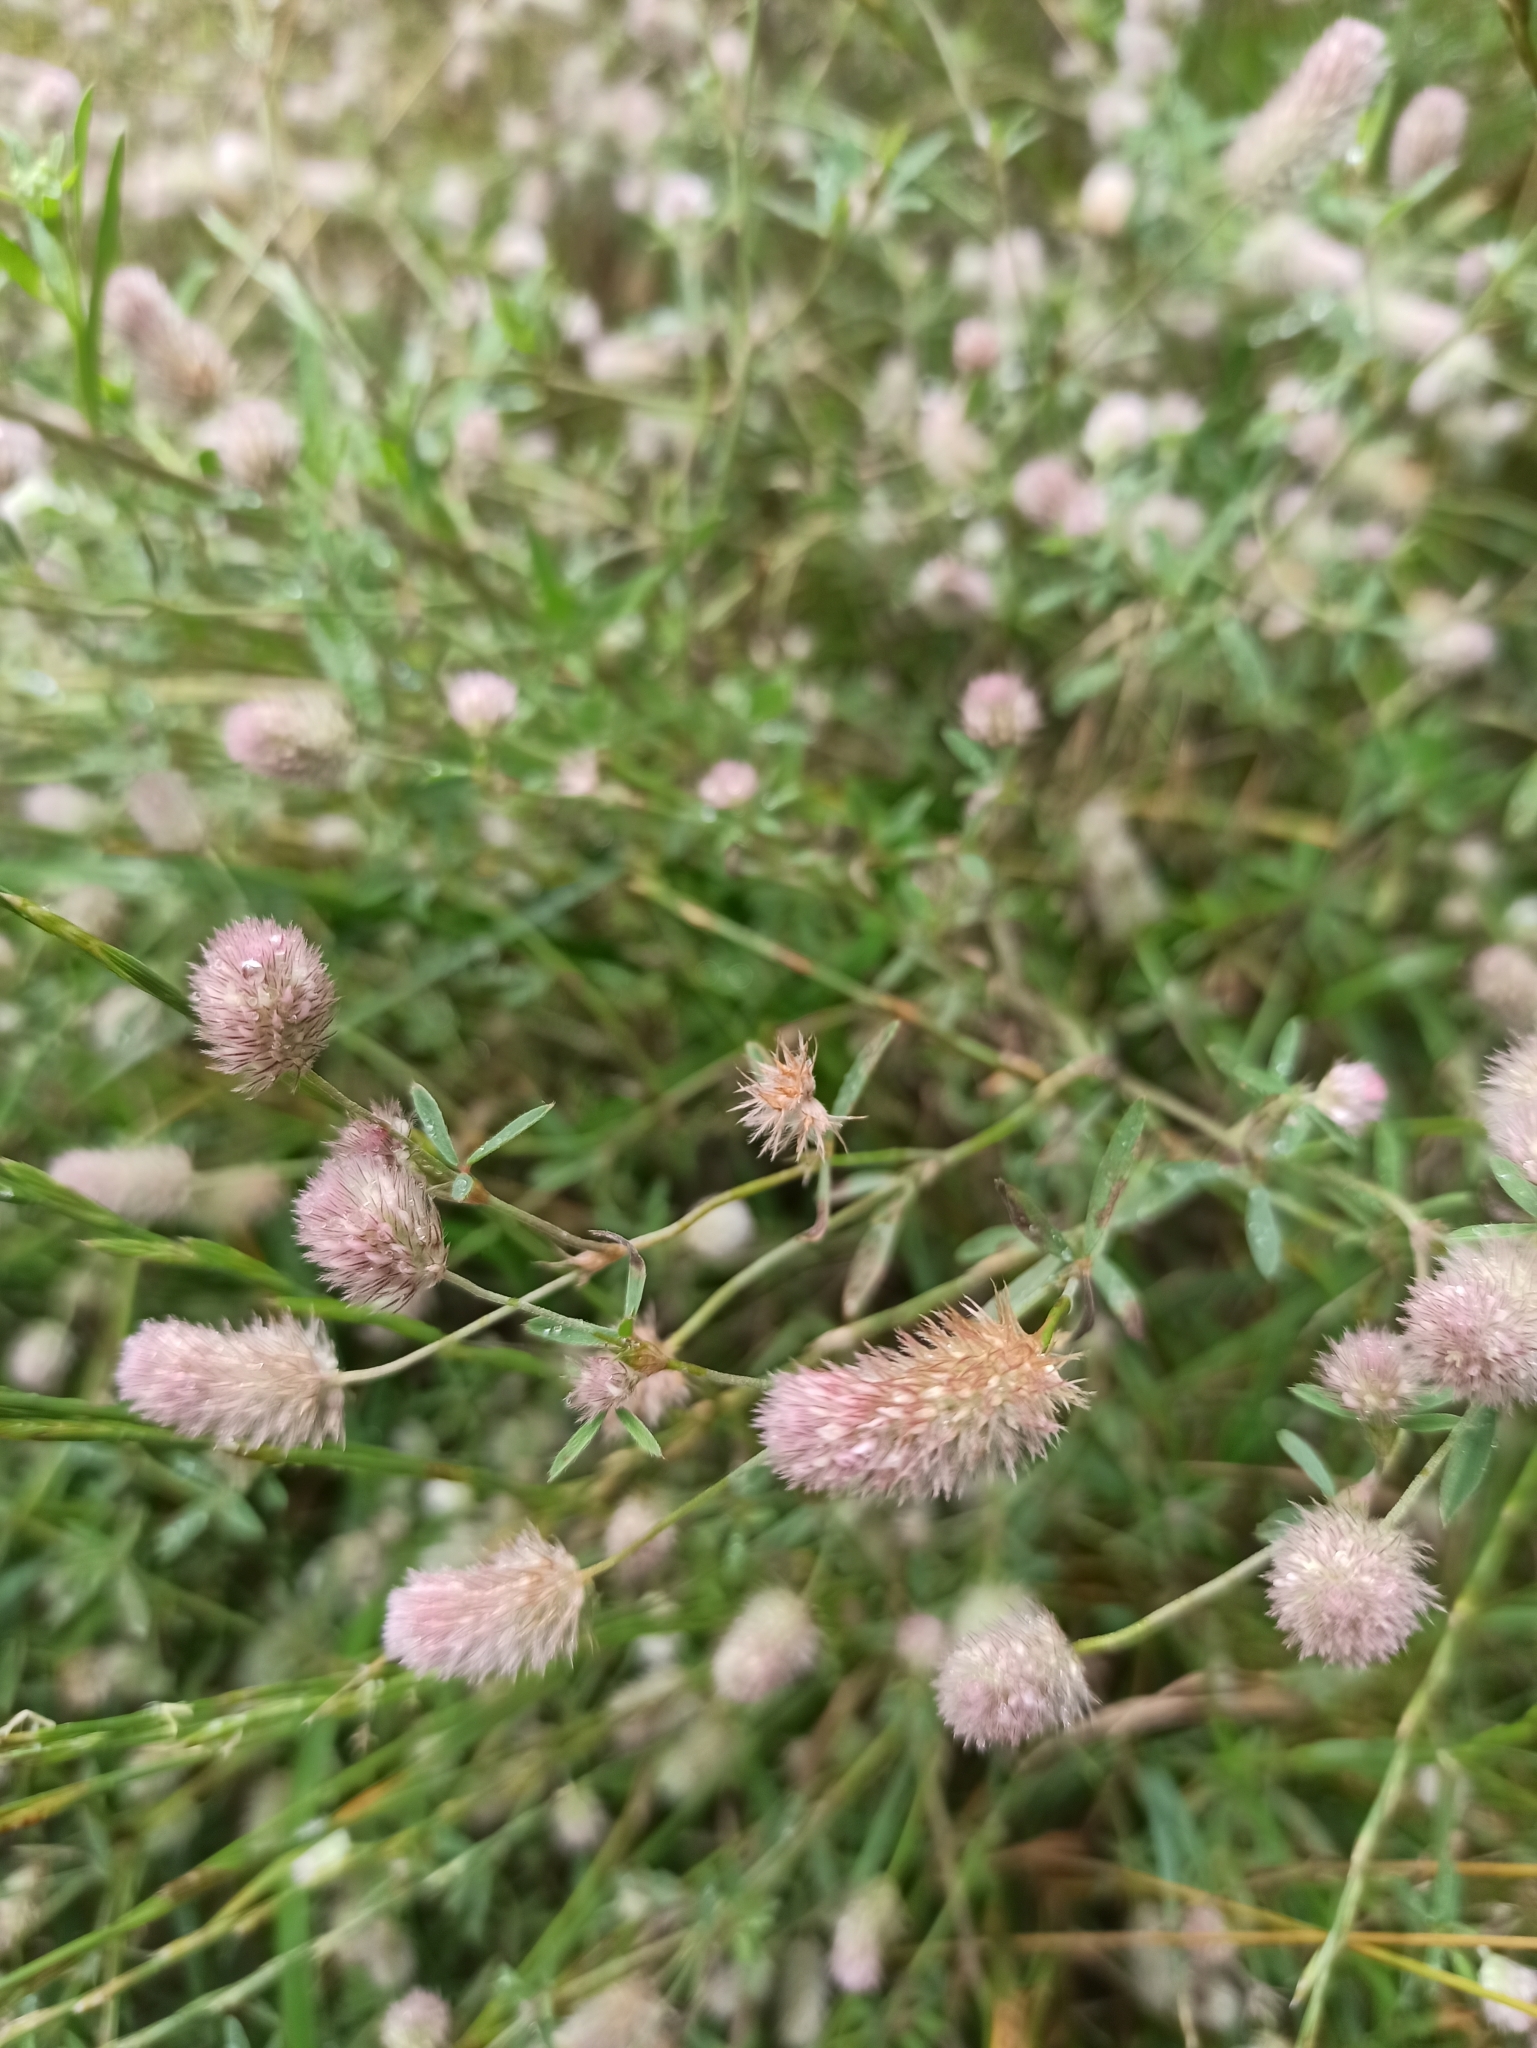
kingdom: Plantae
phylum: Tracheophyta
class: Magnoliopsida
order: Fabales
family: Fabaceae
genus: Trifolium
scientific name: Trifolium arvense
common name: Hare's-foot clover
